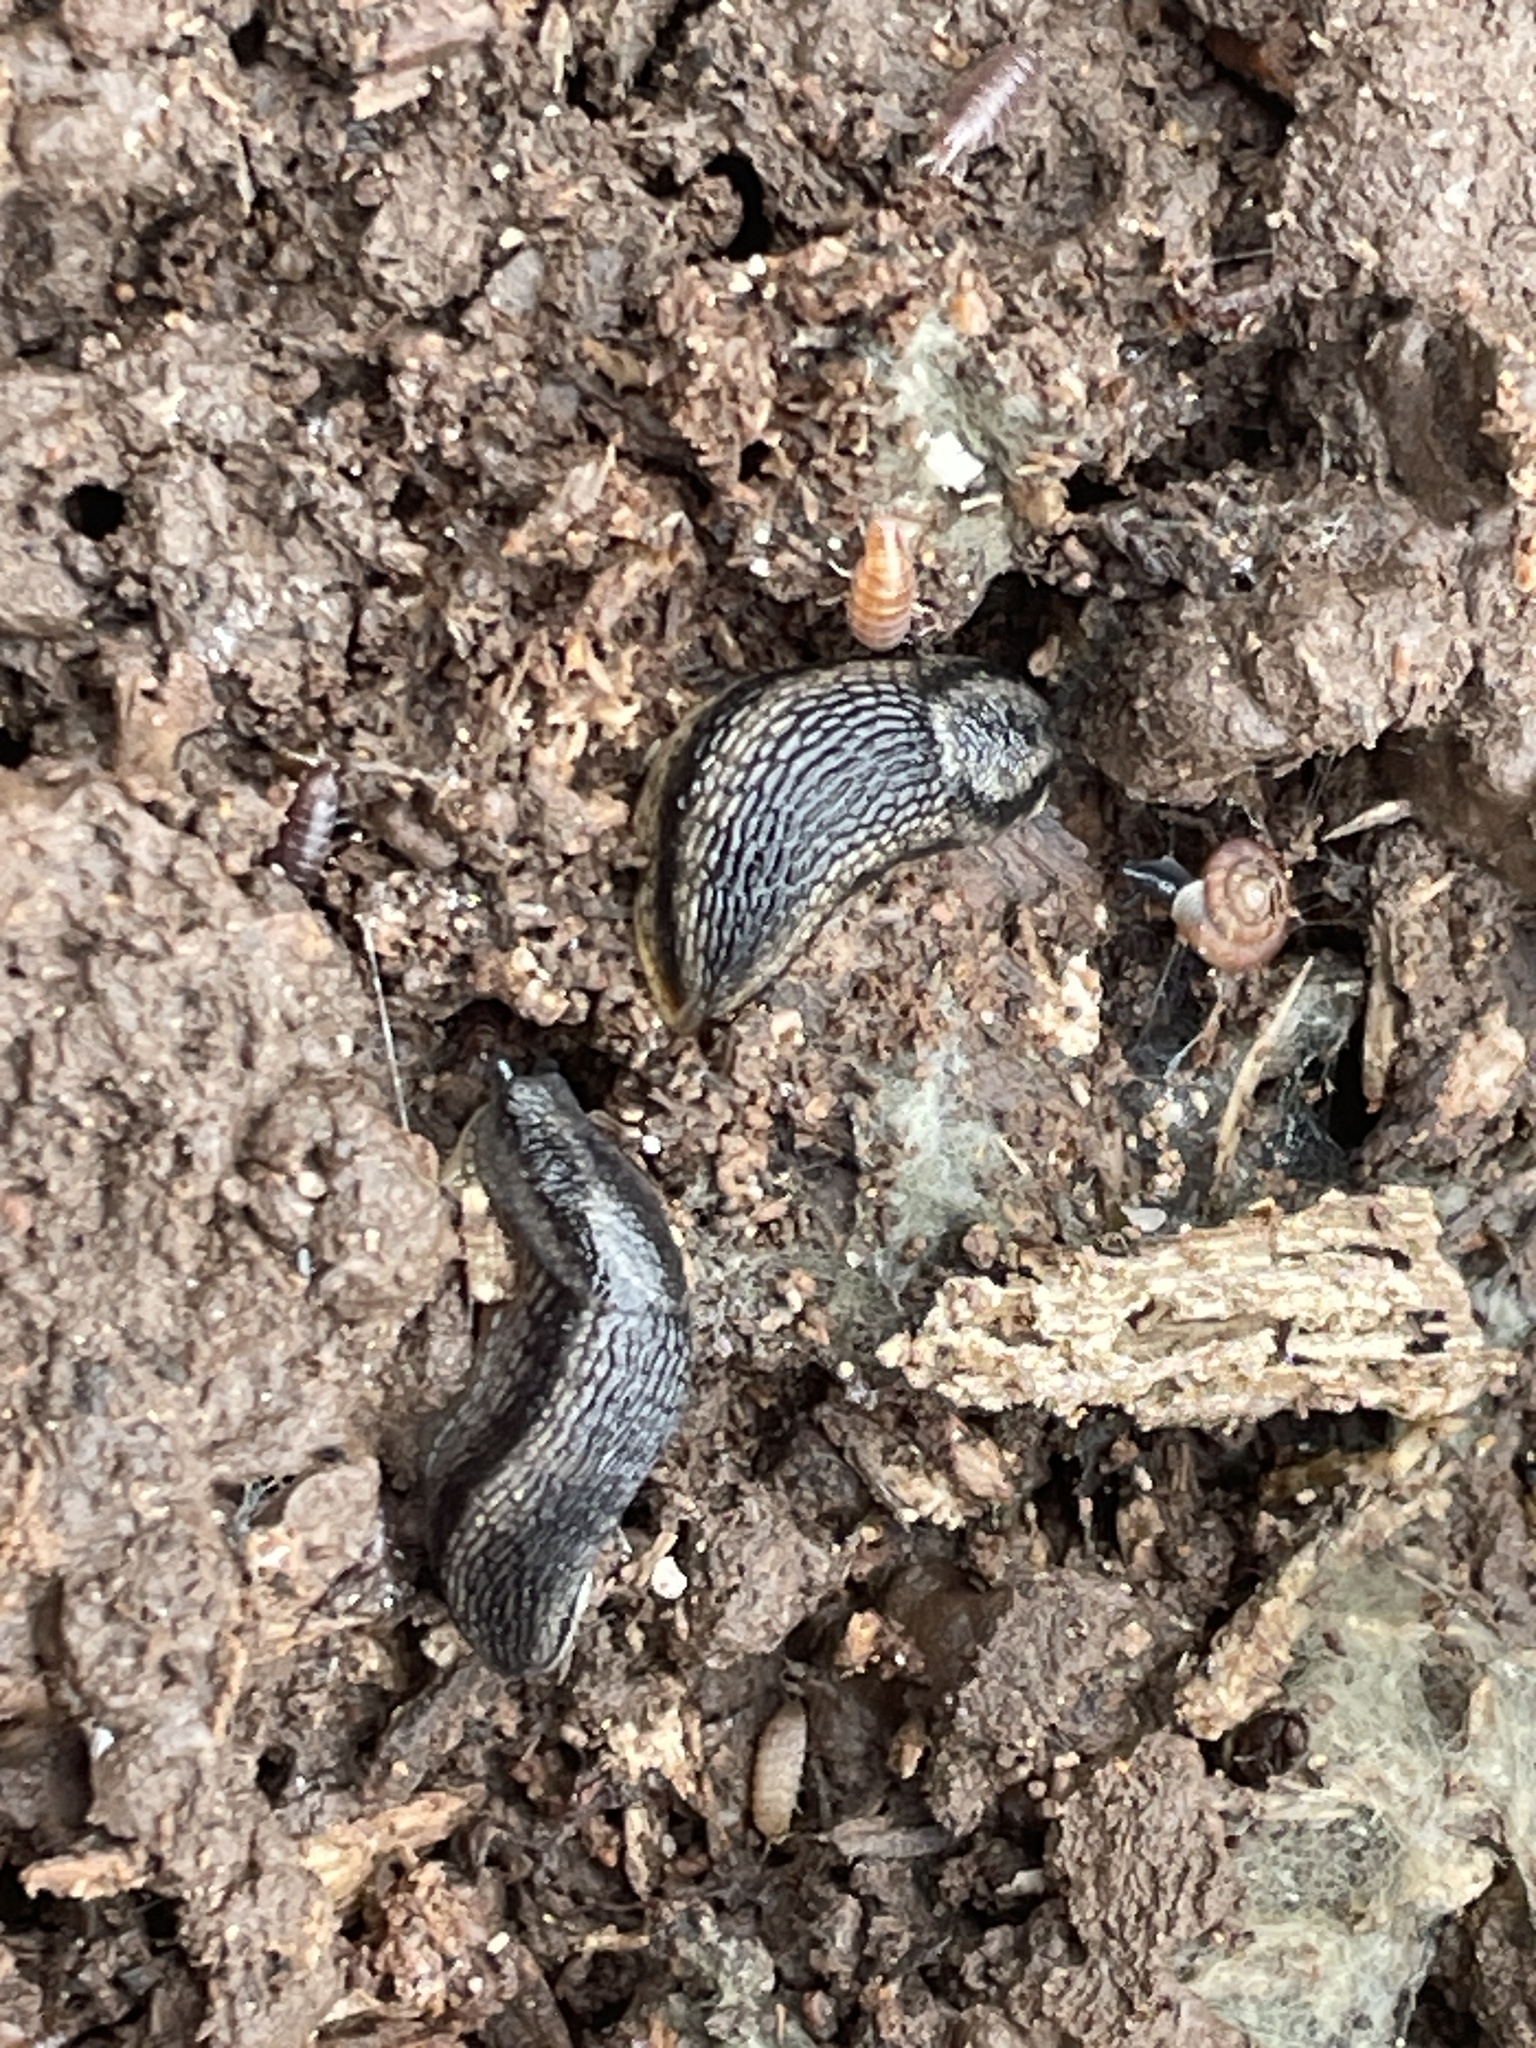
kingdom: Animalia
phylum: Mollusca
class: Gastropoda
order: Stylommatophora
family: Arionidae
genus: Arion
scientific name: Arion hortensis
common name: Garden arion
